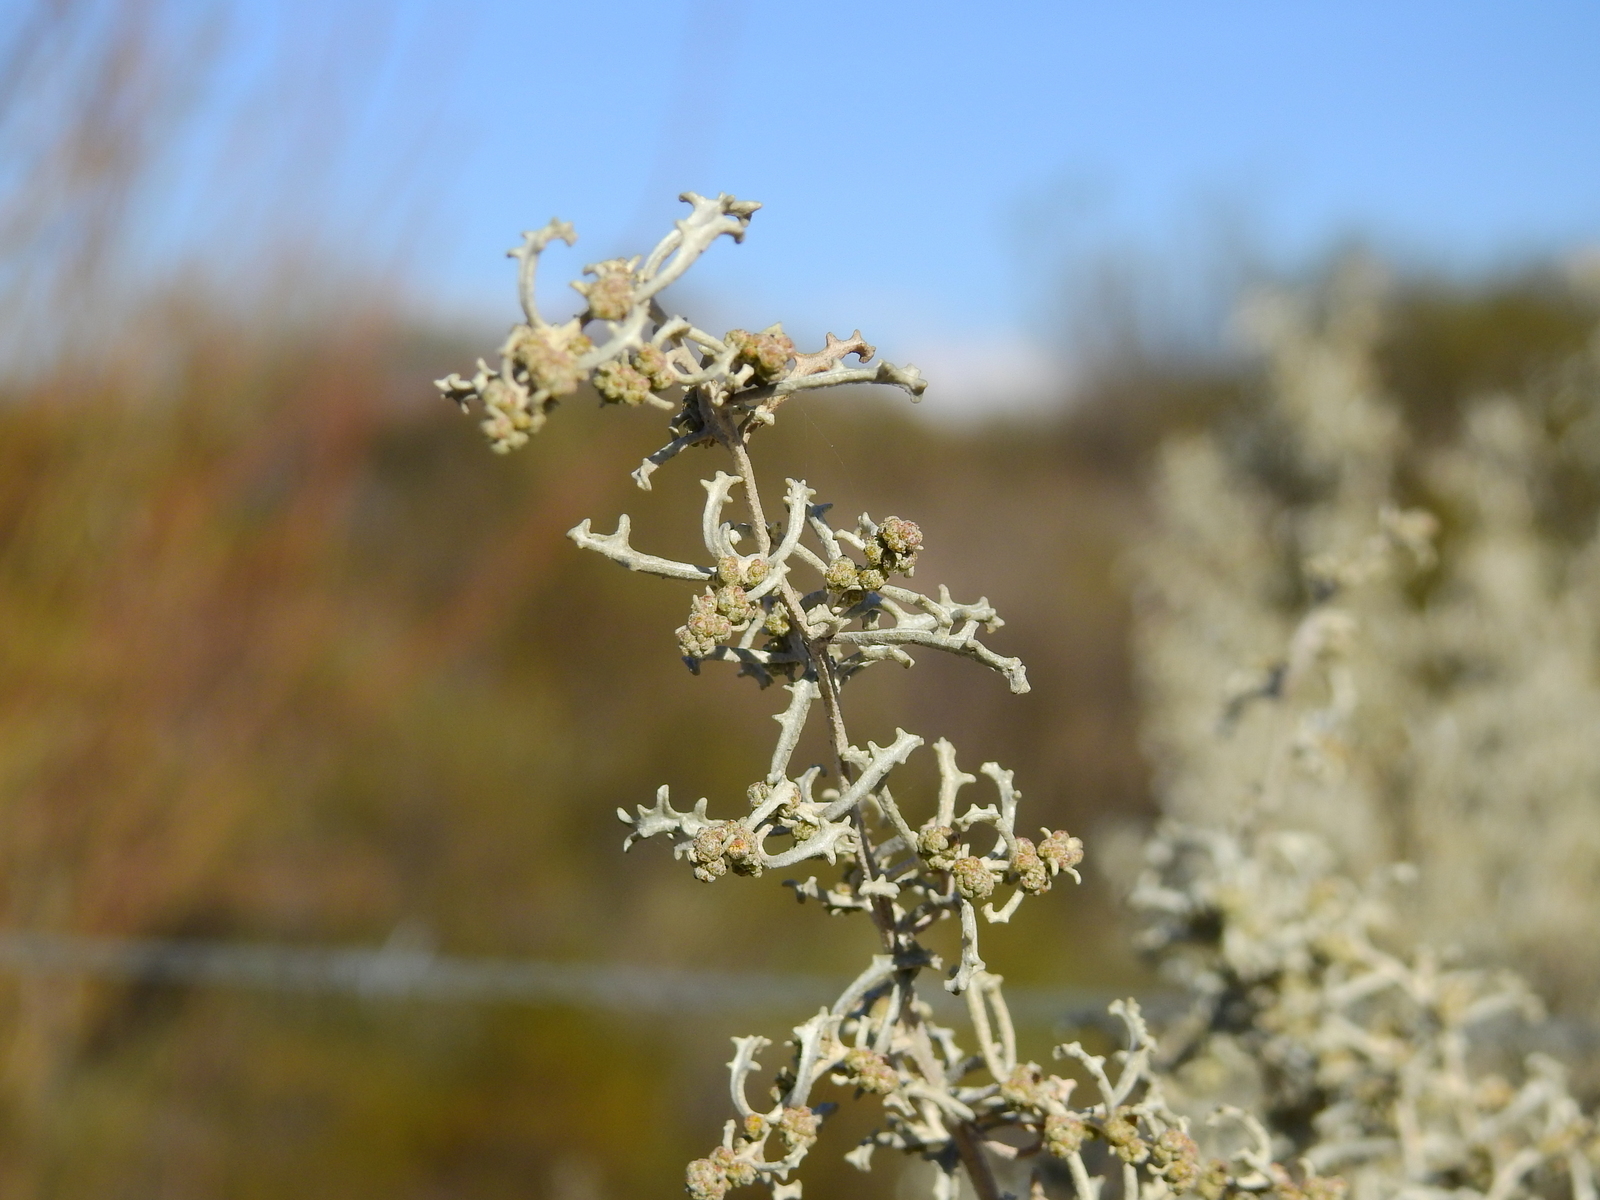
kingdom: Plantae
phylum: Tracheophyta
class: Magnoliopsida
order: Caryophyllales
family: Amaranthaceae
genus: Atriplex
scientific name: Atriplex lampa
